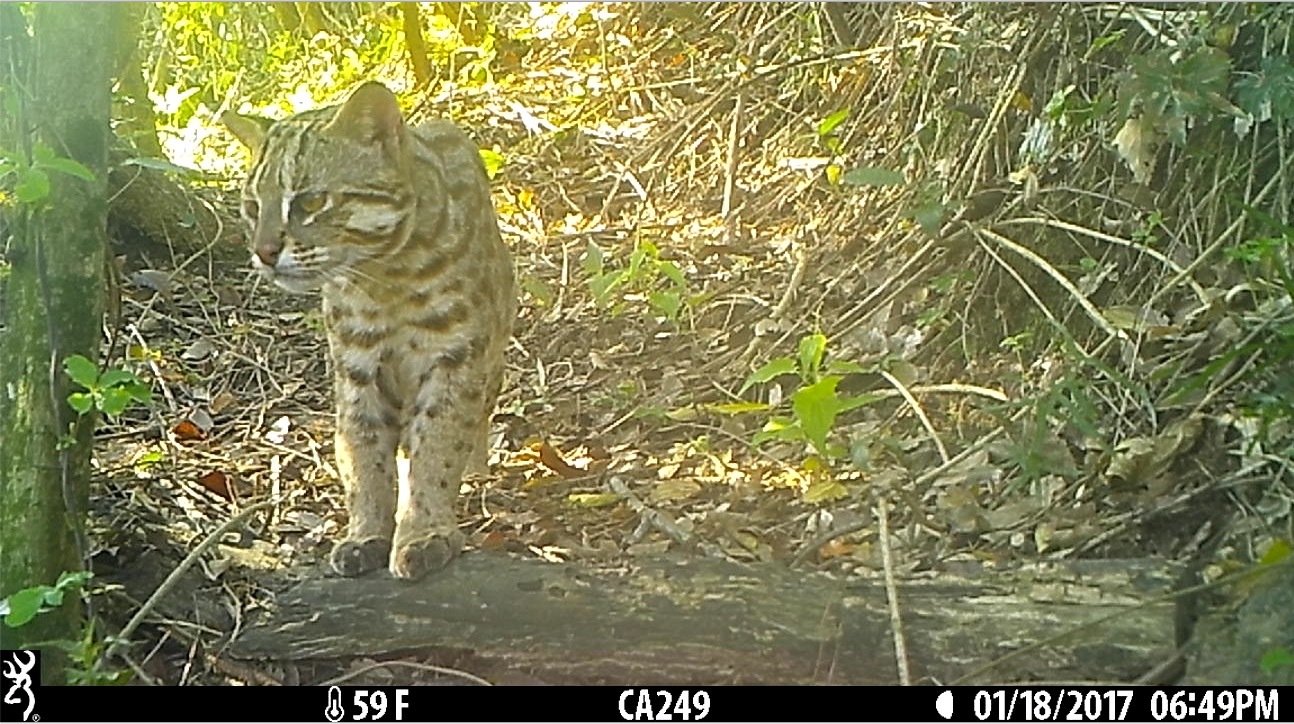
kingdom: Animalia
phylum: Chordata
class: Mammalia
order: Carnivora
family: Felidae
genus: Prionailurus
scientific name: Prionailurus bengalensis
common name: Leopard cat
